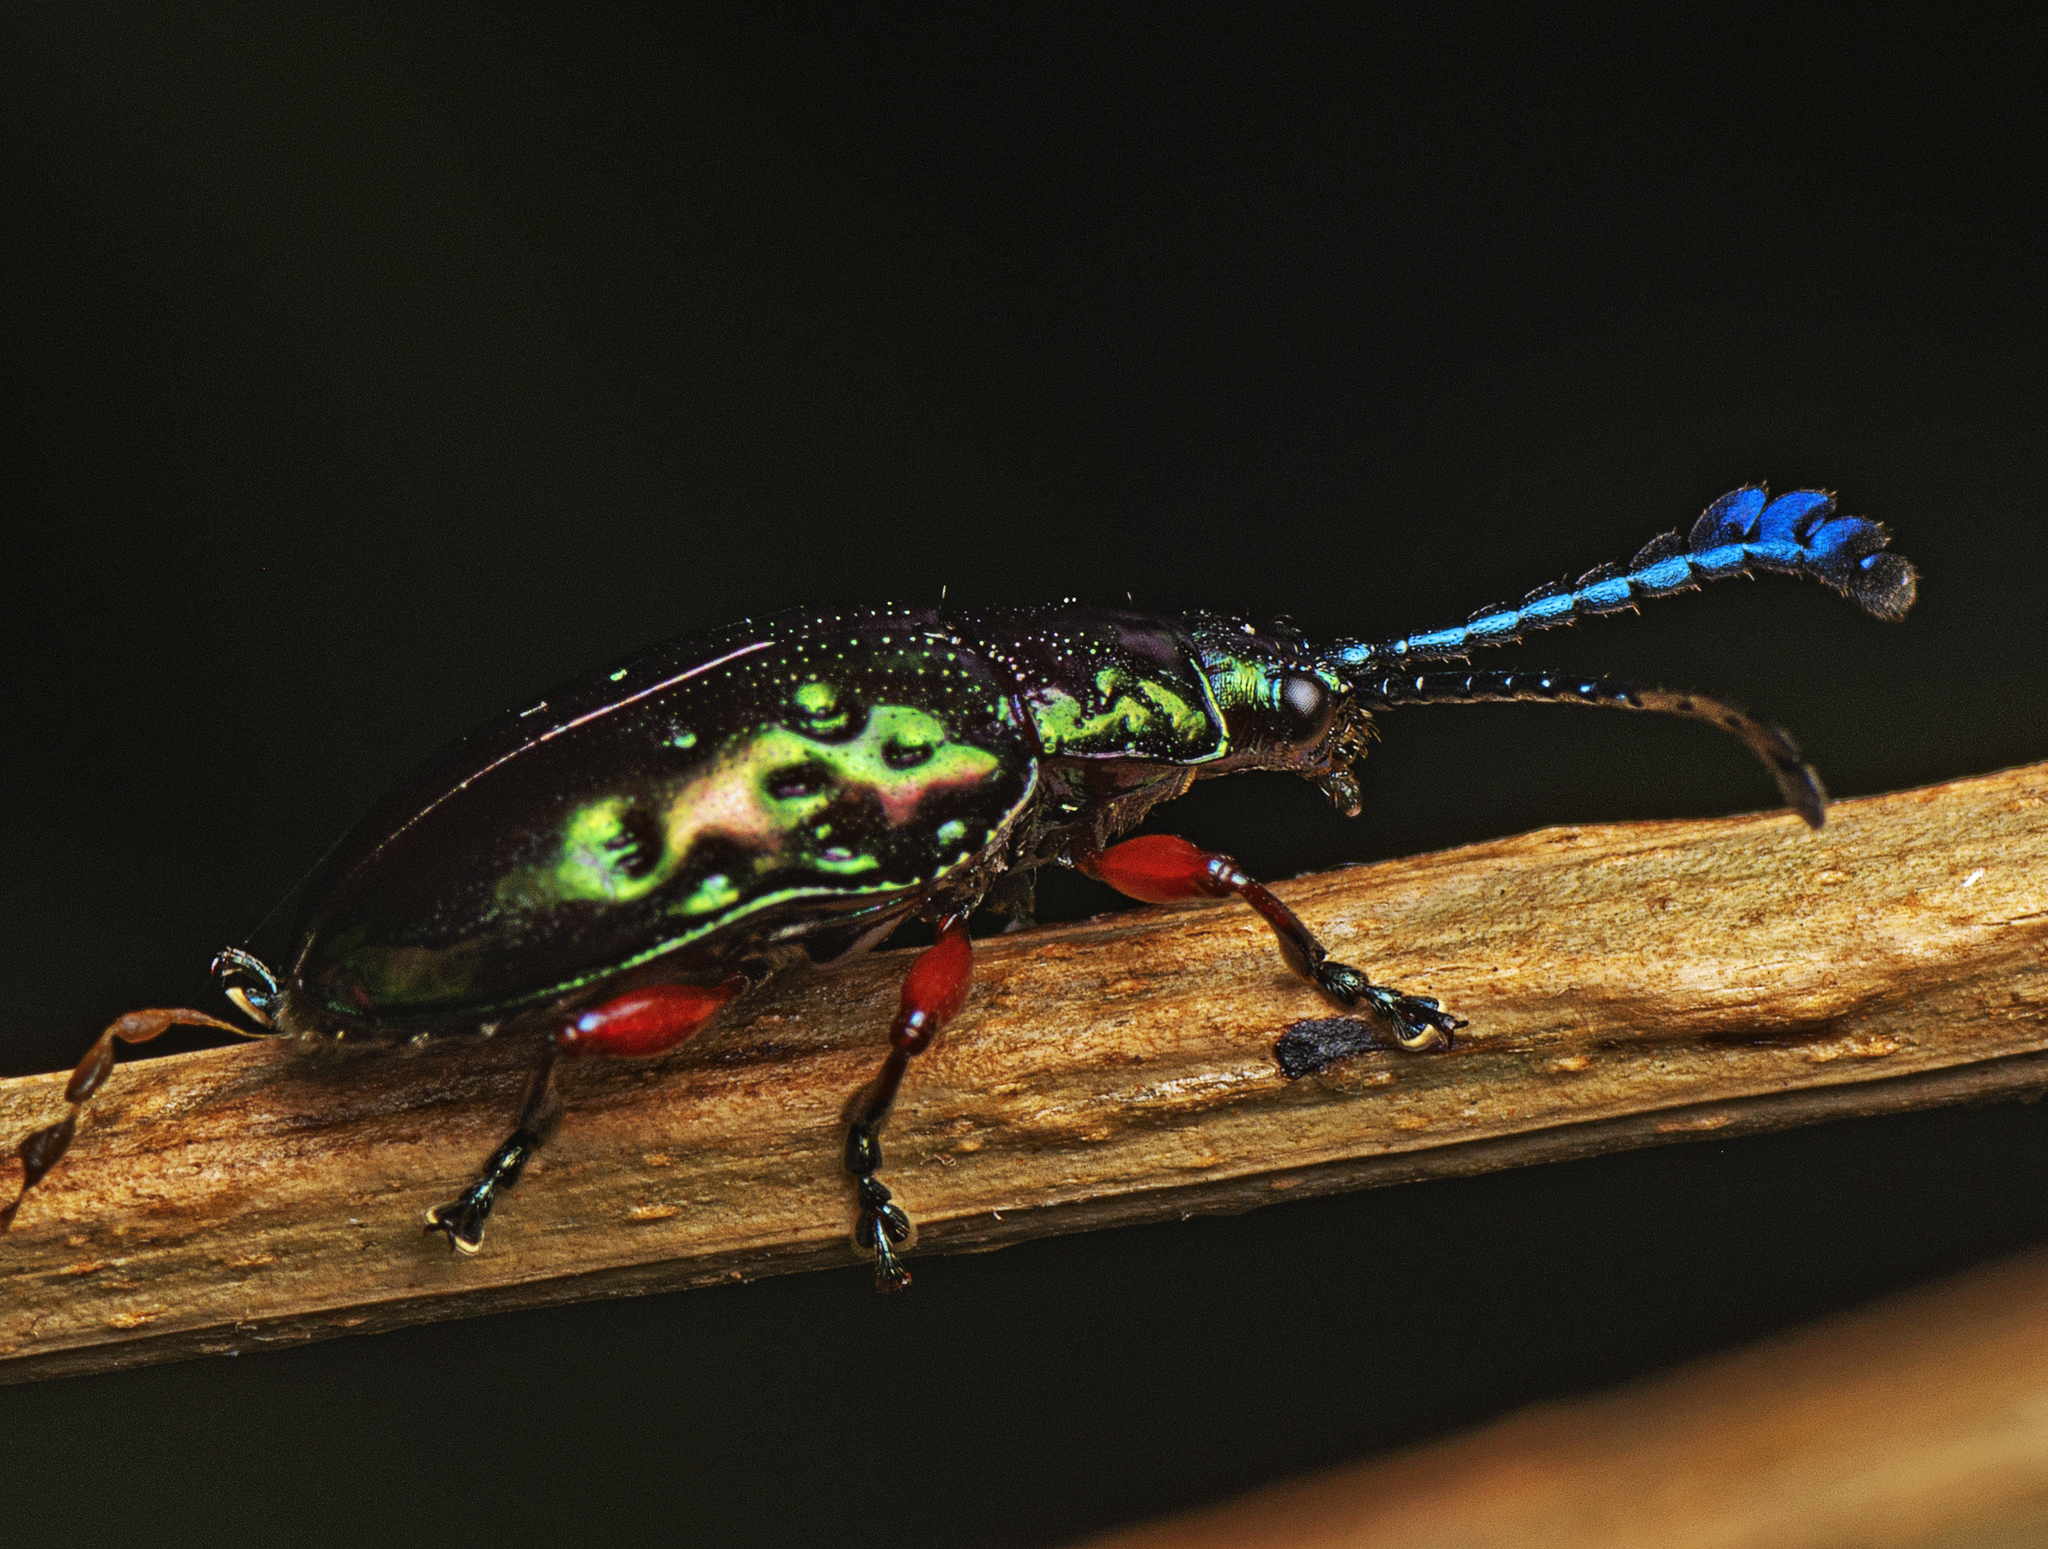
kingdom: Animalia
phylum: Arthropoda
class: Insecta
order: Coleoptera
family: Chrysomelidae
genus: Johannica
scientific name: Johannica gemellata
